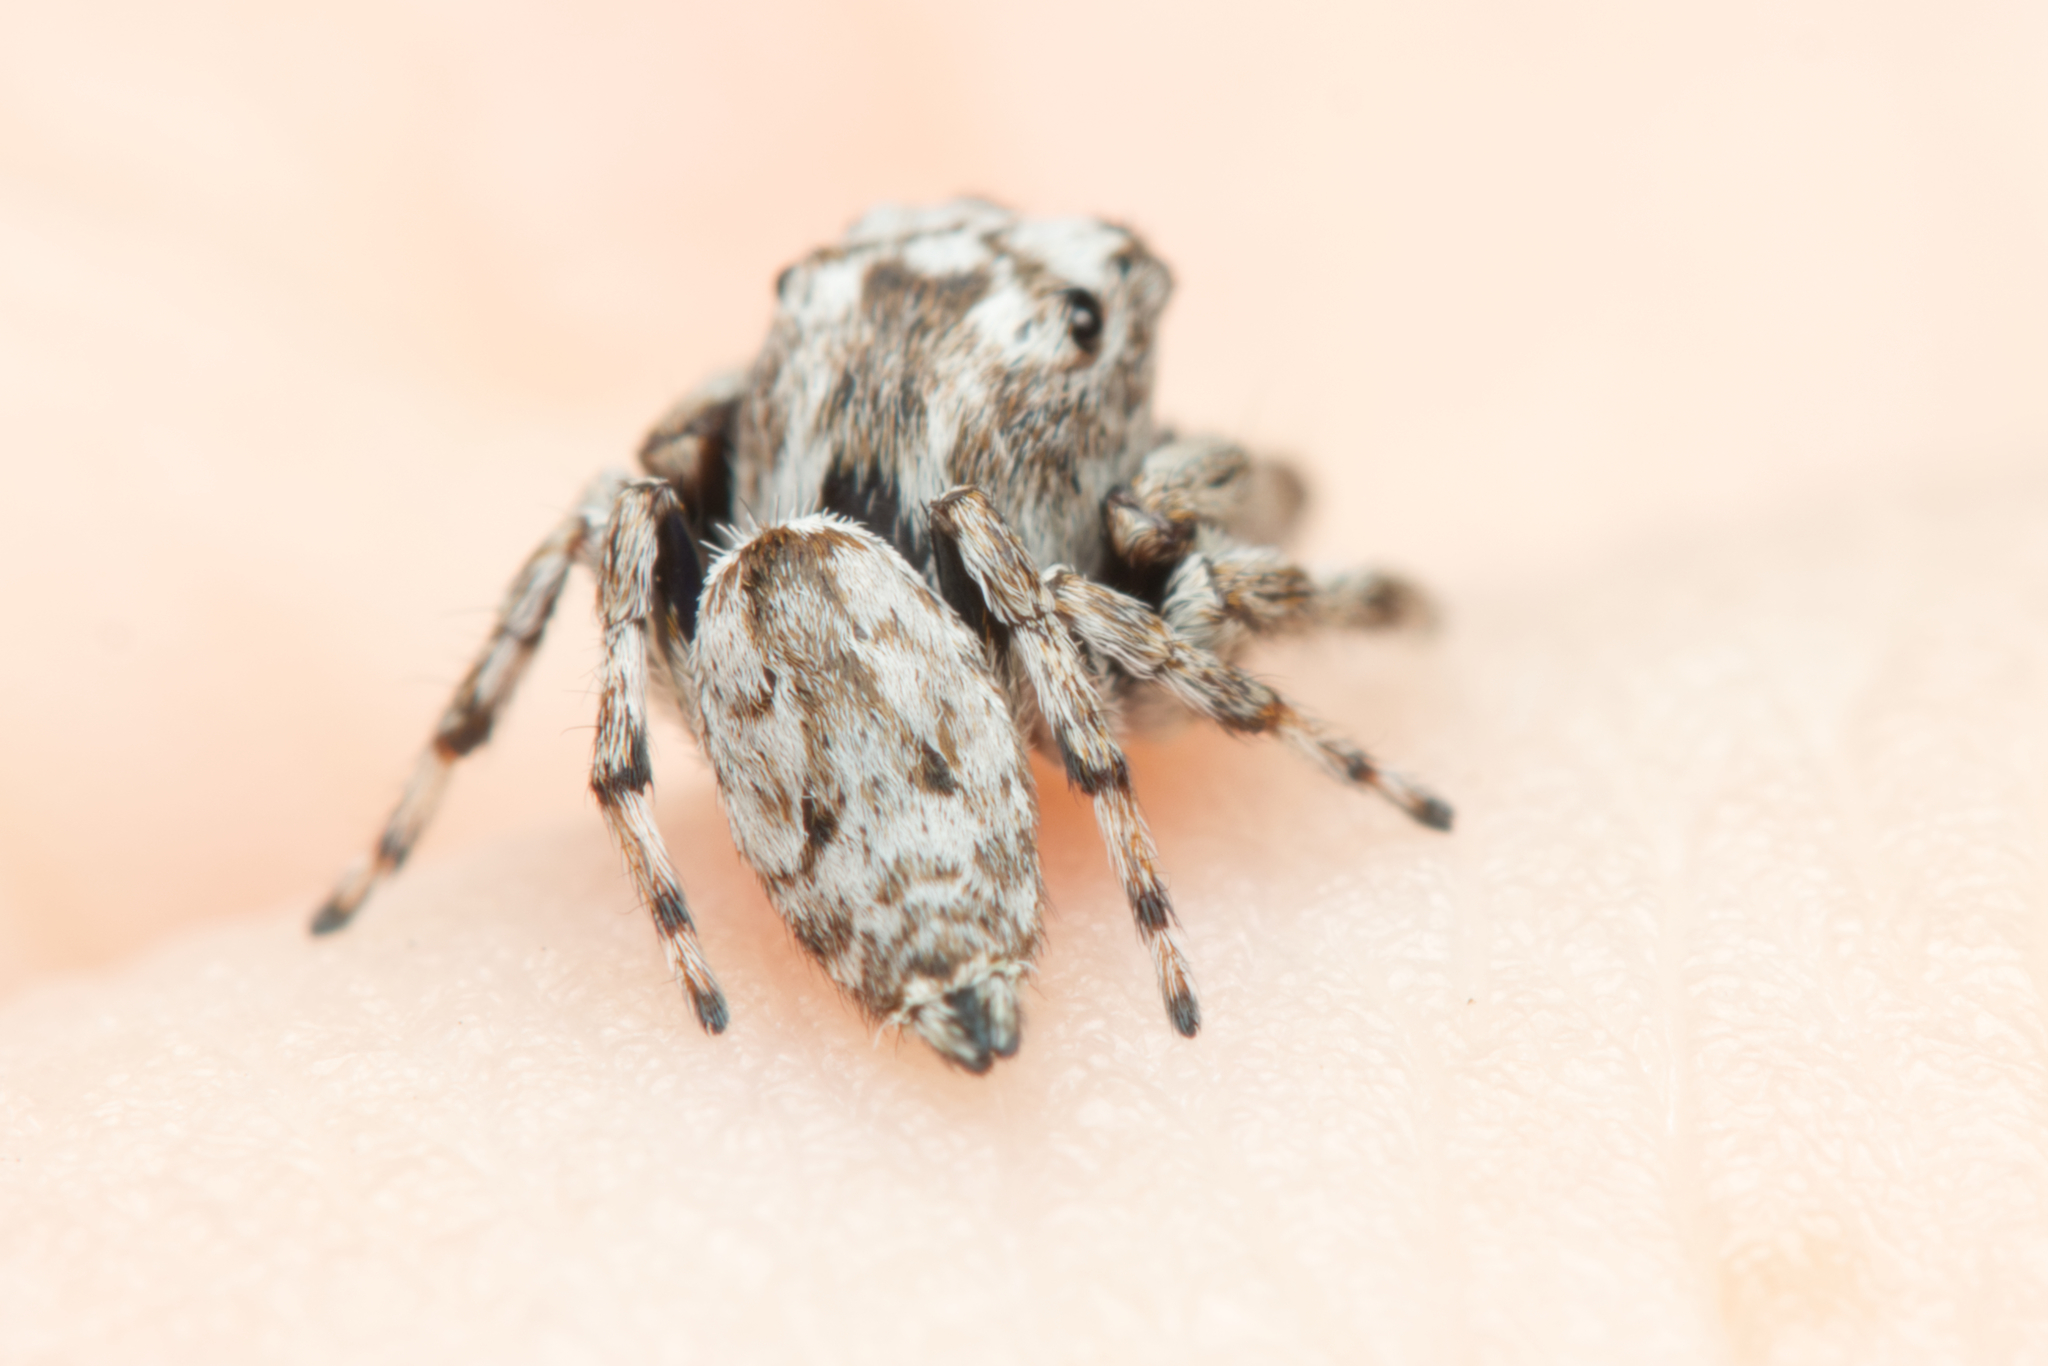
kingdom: Animalia
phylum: Arthropoda
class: Arachnida
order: Araneae
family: Salticidae
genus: Ananeon
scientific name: Ananeon howardensis
